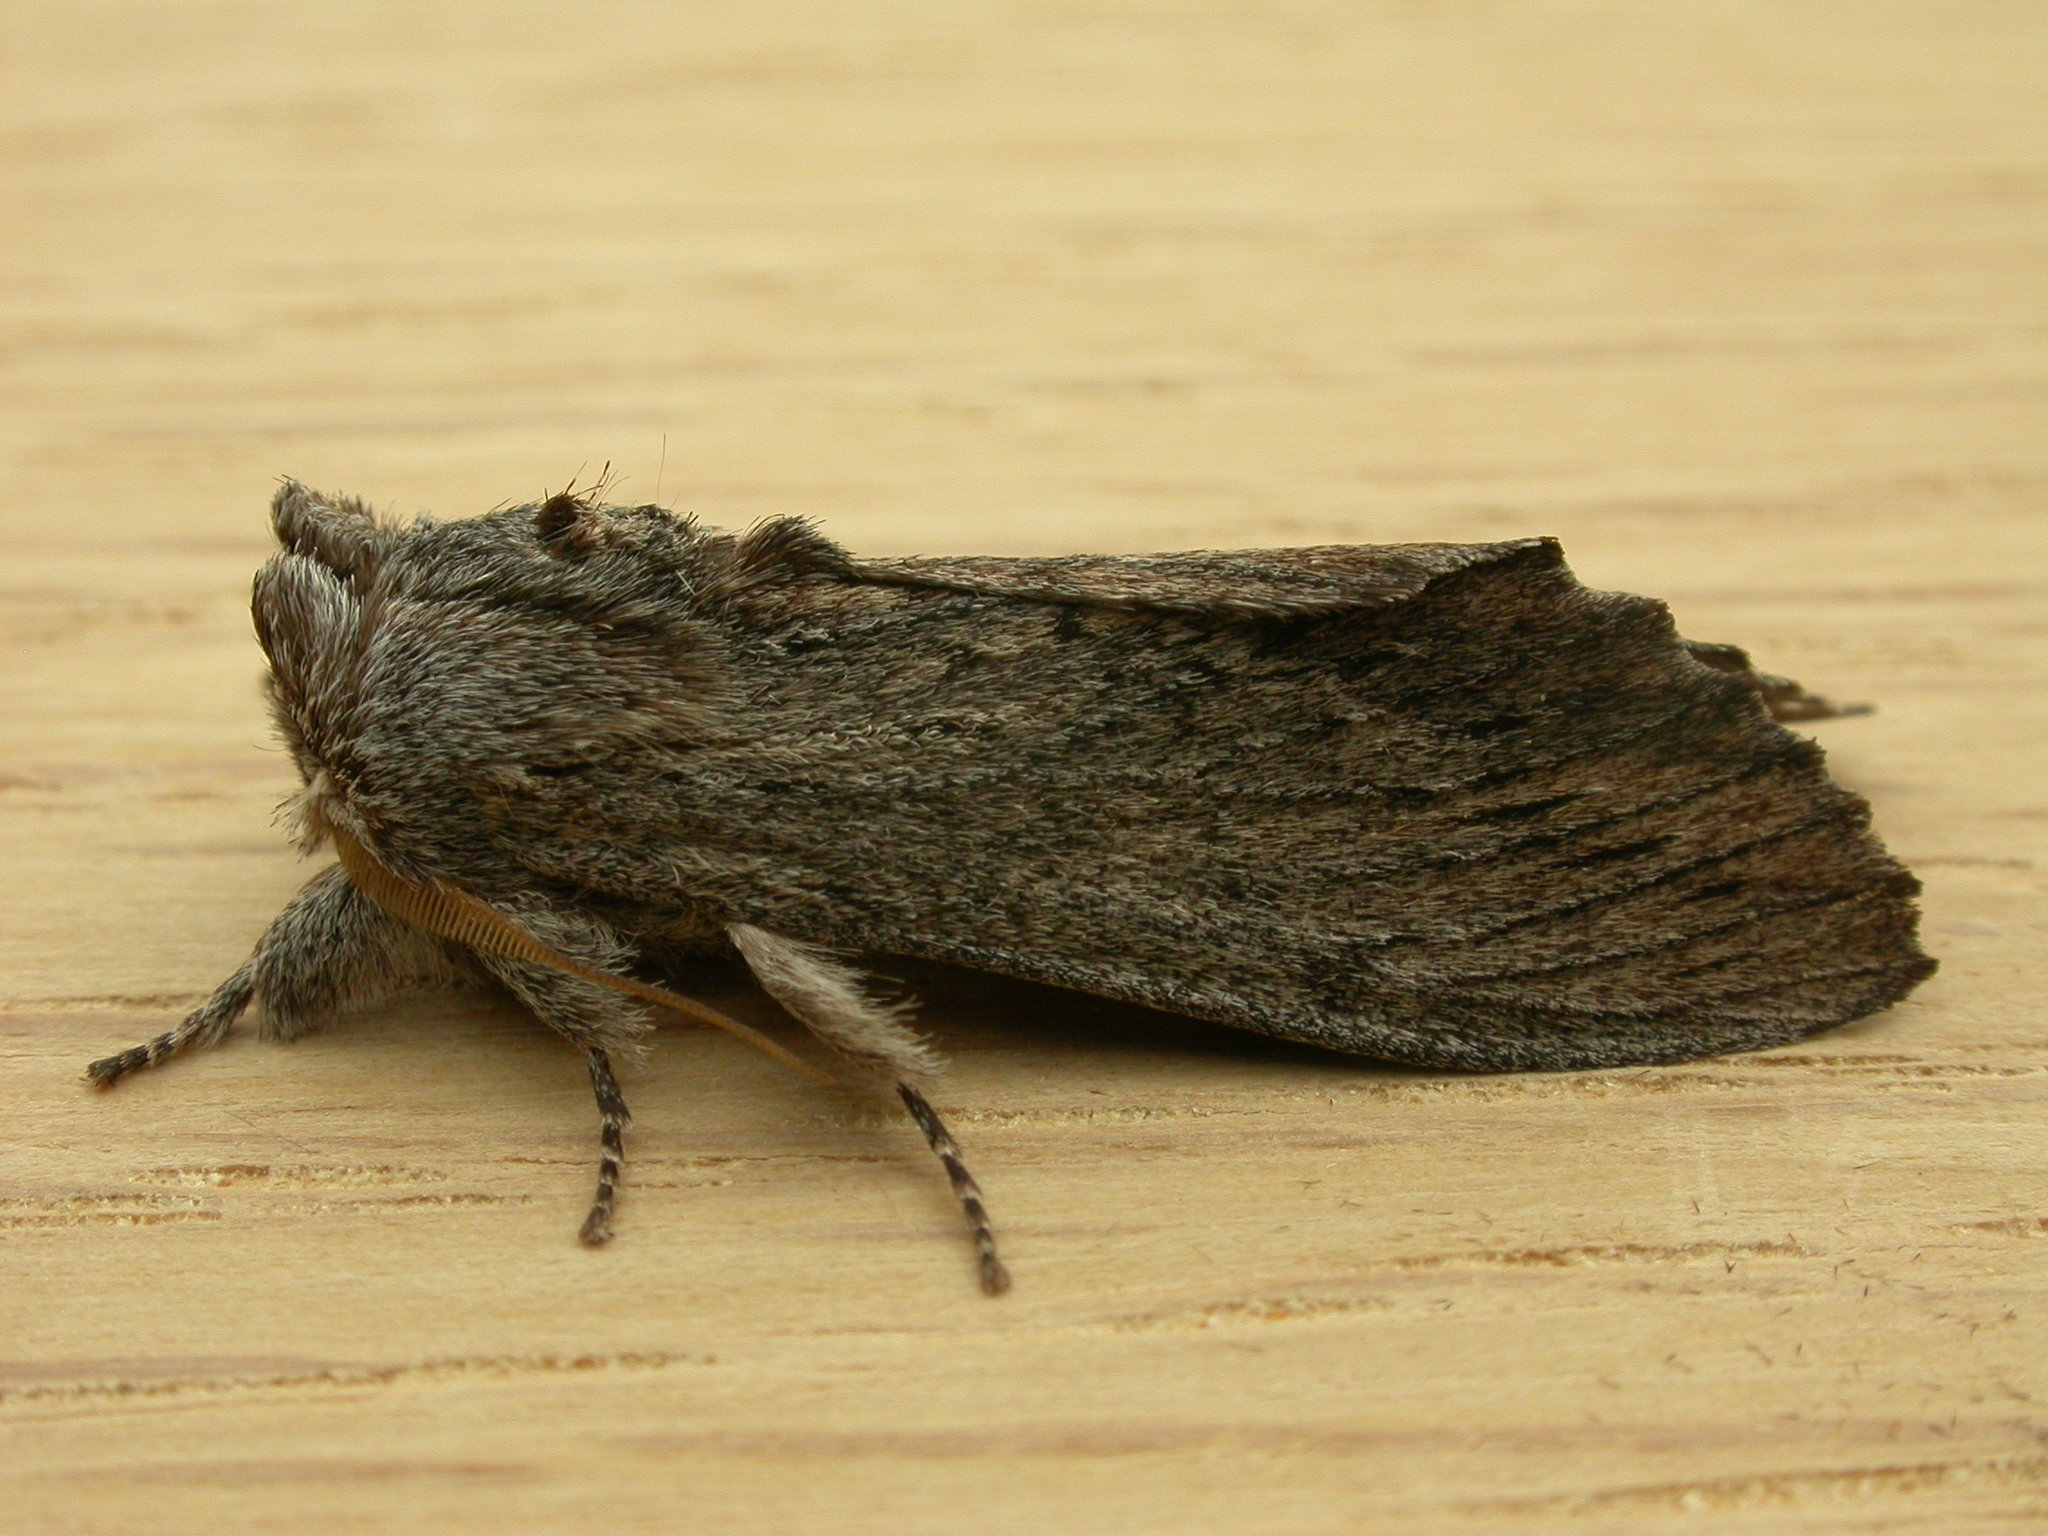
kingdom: Animalia
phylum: Arthropoda
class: Insecta
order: Lepidoptera
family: Notodontidae
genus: Destolmia
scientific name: Destolmia lineata
